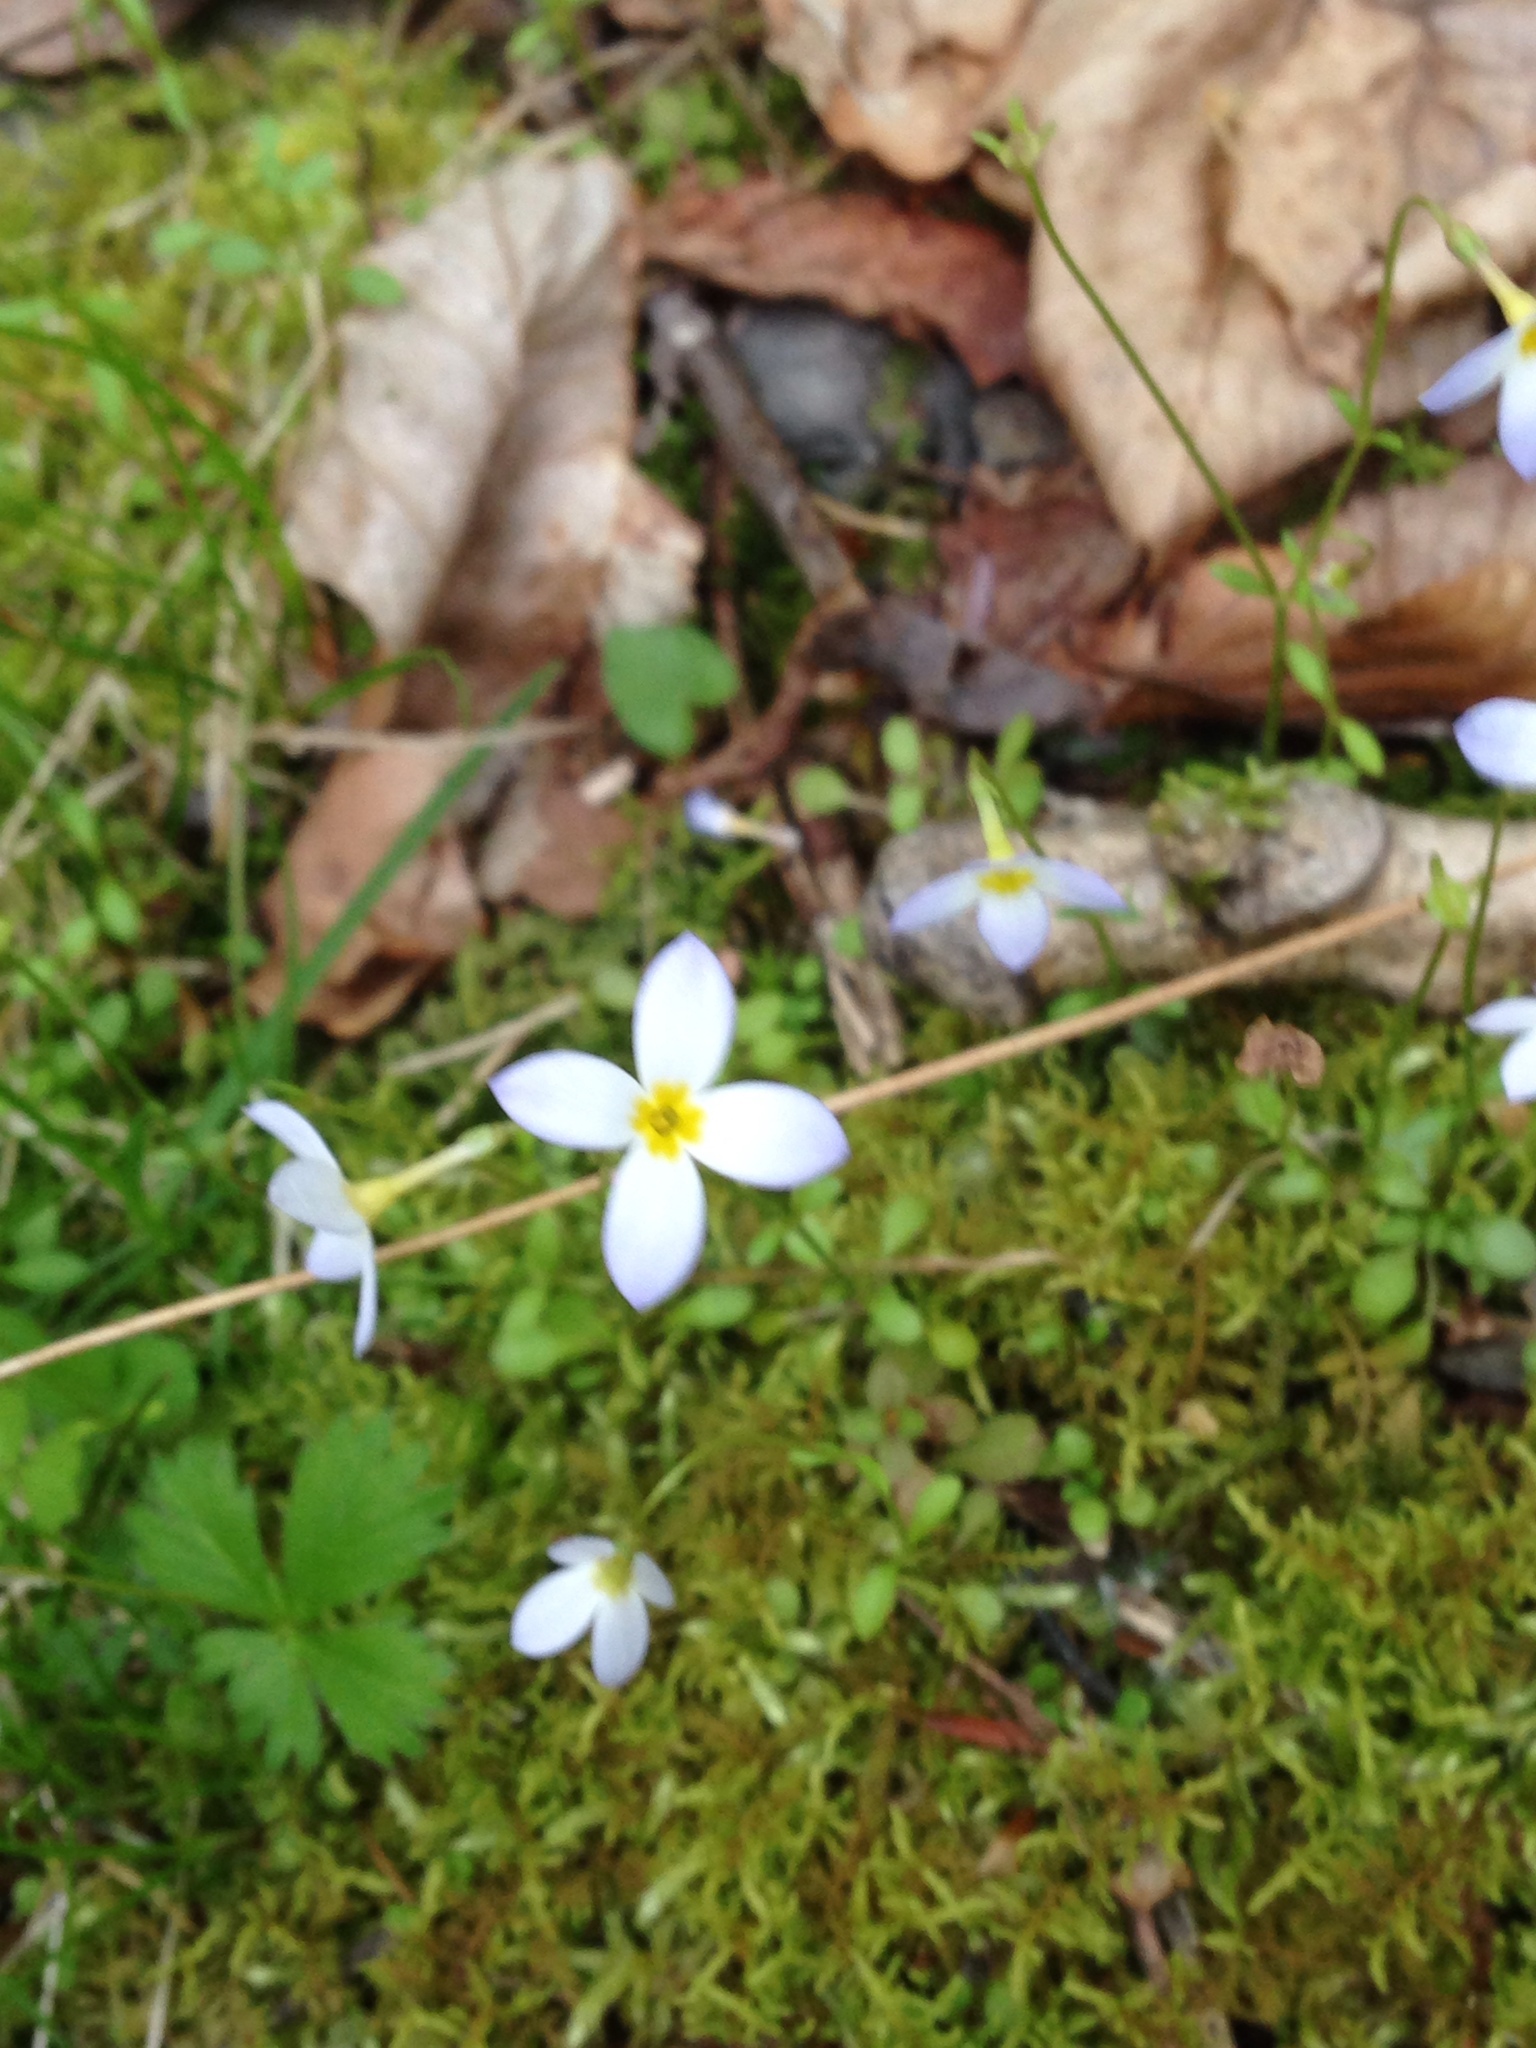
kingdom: Plantae
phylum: Tracheophyta
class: Magnoliopsida
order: Gentianales
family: Rubiaceae
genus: Houstonia
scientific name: Houstonia caerulea
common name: Bluets
